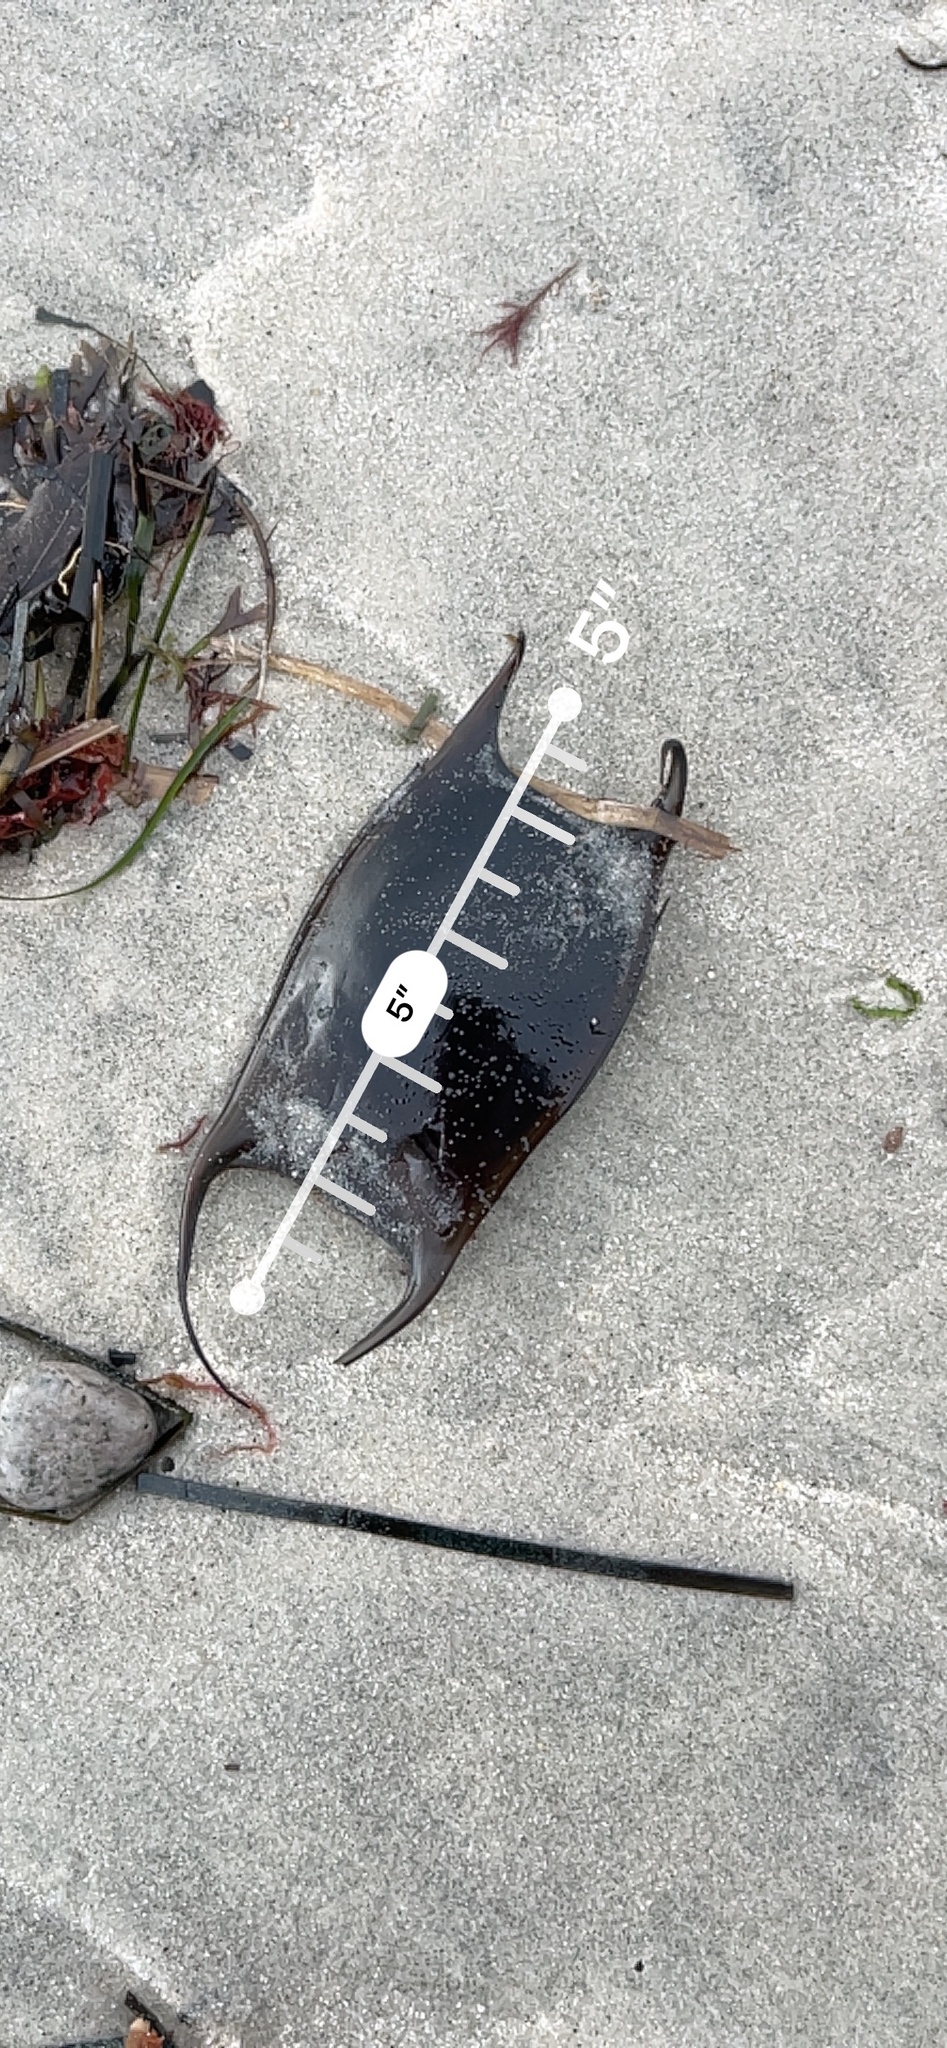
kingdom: Animalia
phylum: Chordata
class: Elasmobranchii
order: Rajiformes
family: Rajidae
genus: Raja
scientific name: Raja eglanteria
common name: Clearnose skate
